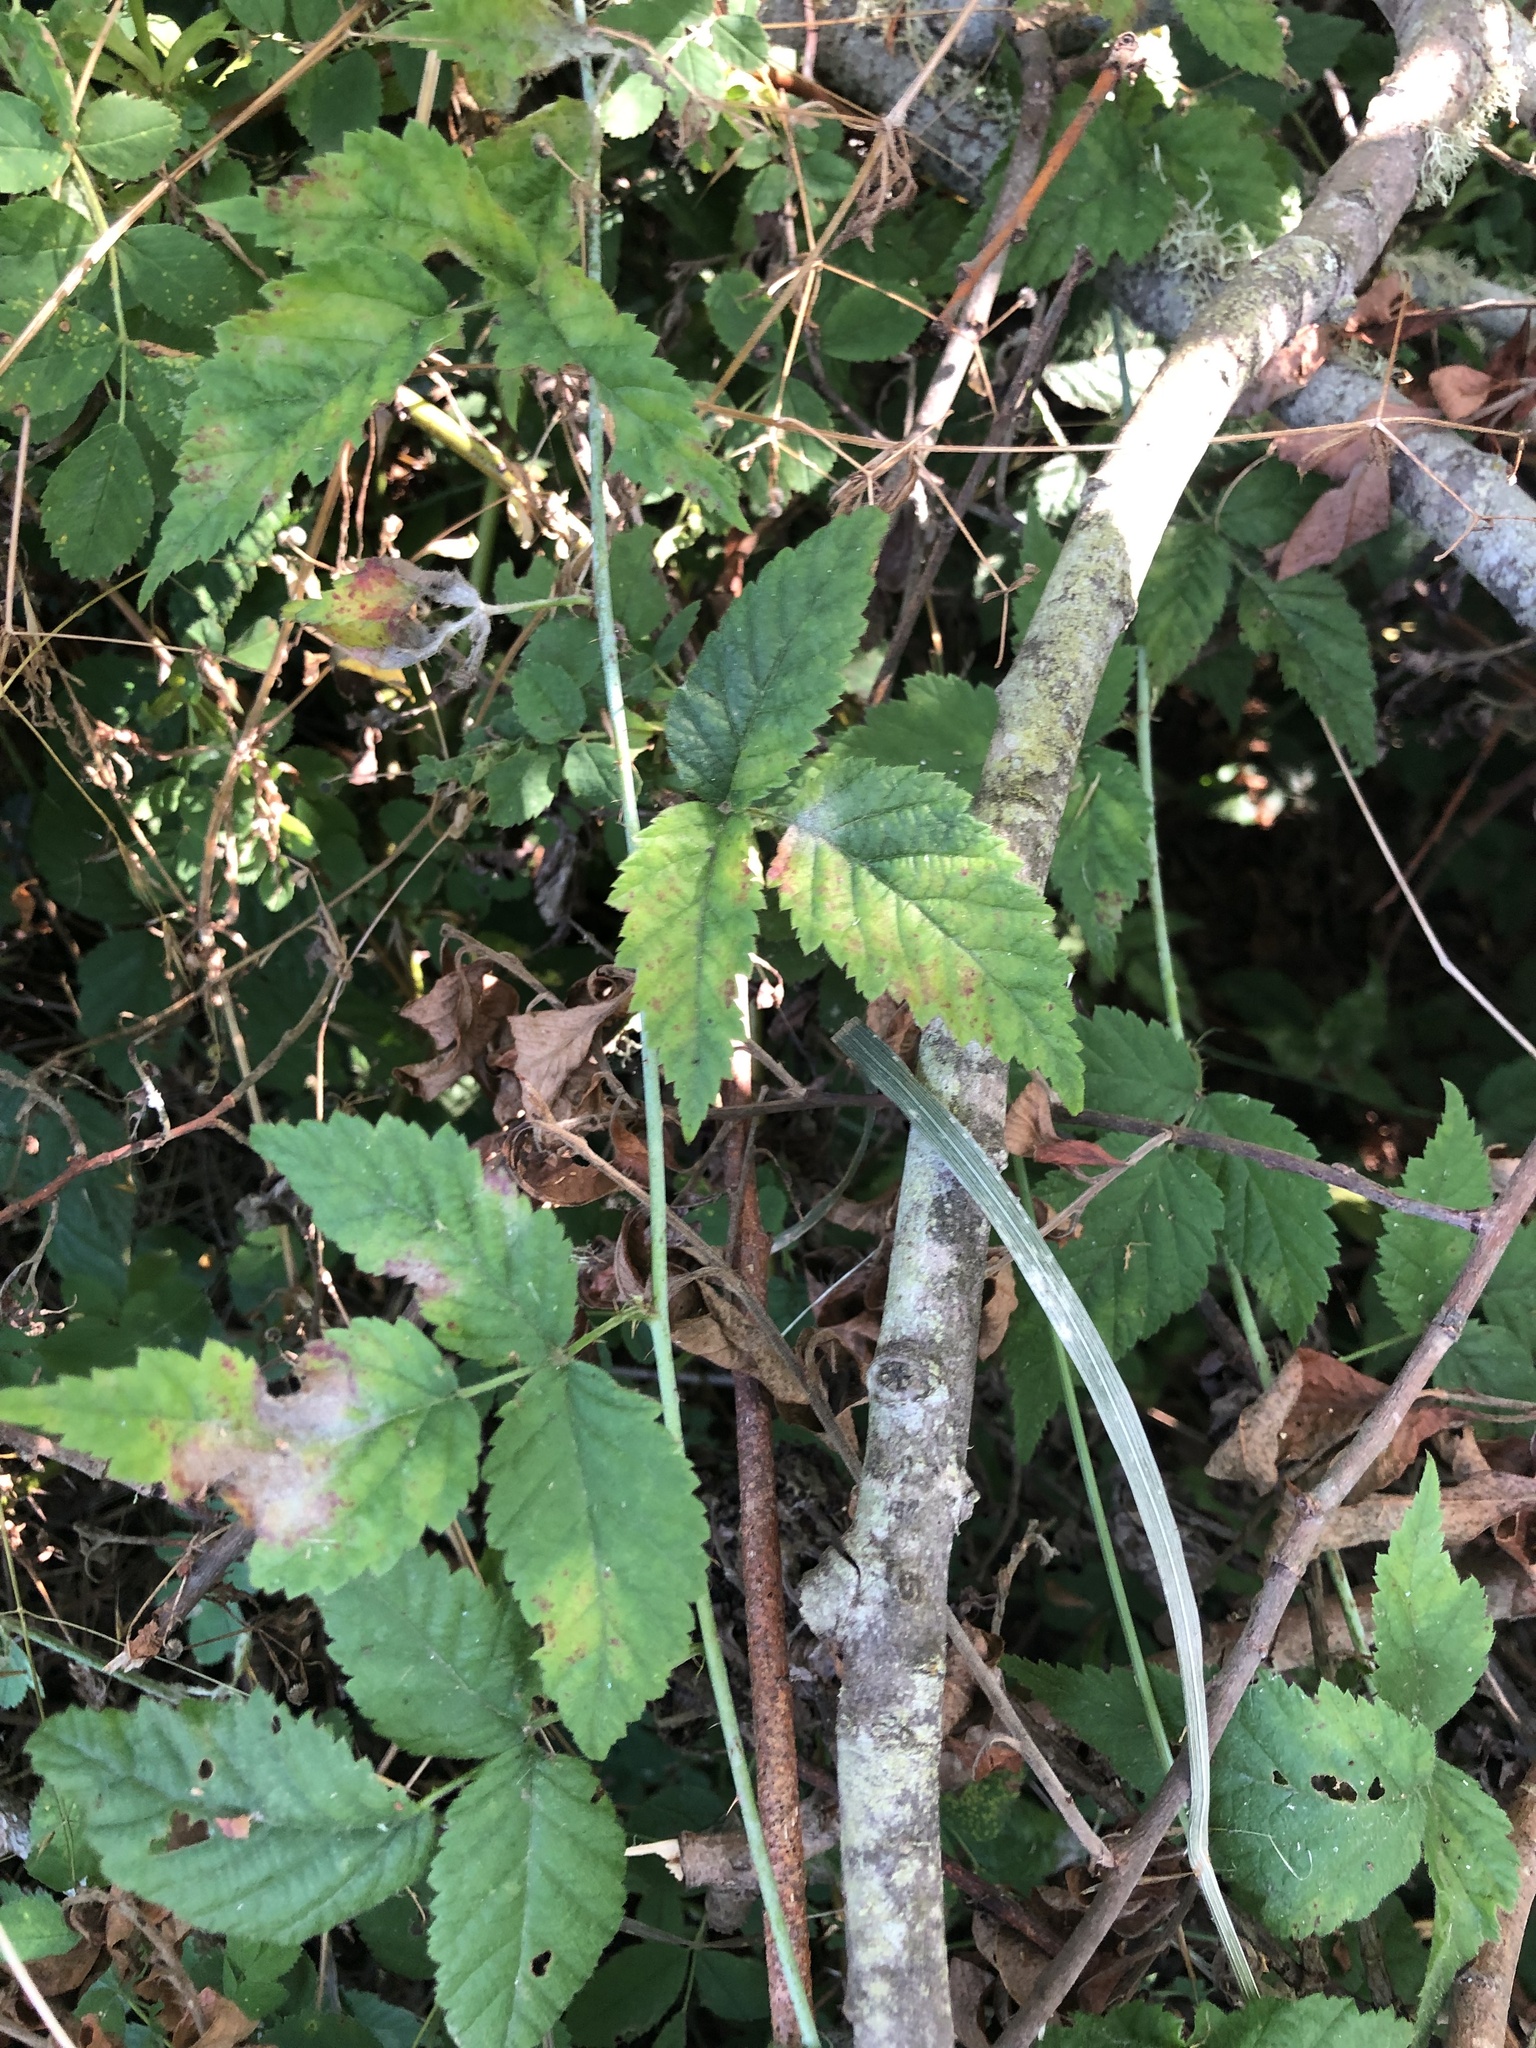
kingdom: Plantae
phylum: Tracheophyta
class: Magnoliopsida
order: Rosales
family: Rosaceae
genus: Rubus
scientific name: Rubus ursinus
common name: Pacific blackberry
